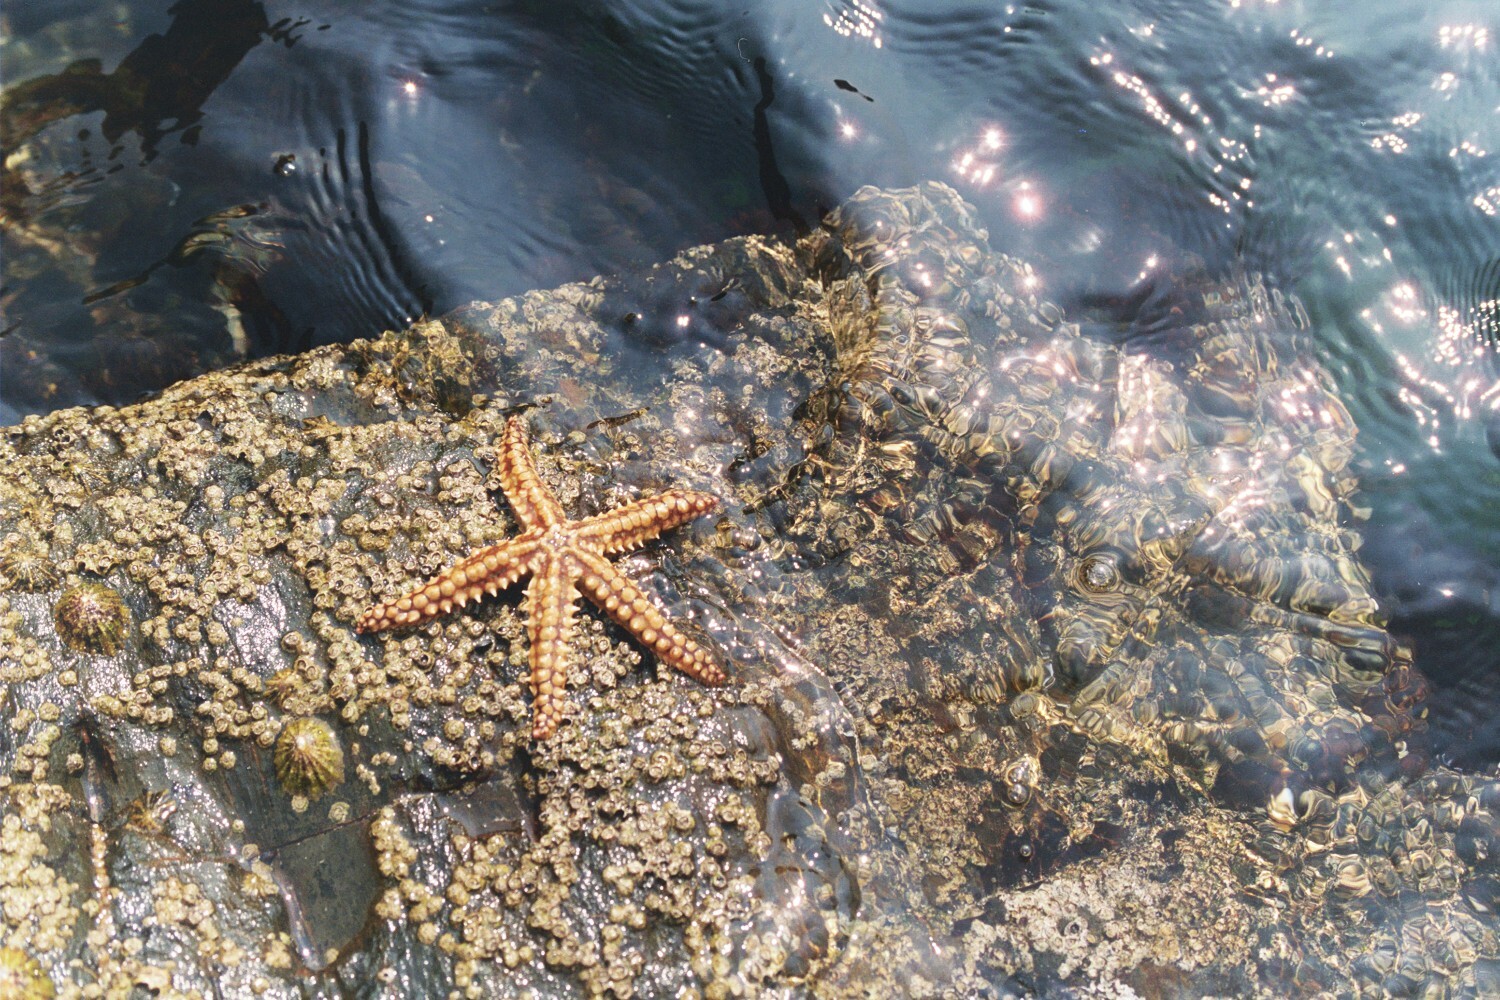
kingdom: Animalia
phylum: Echinodermata
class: Asteroidea
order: Forcipulatida
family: Asteriidae
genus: Marthasterias
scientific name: Marthasterias glacialis
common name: Spiny starfish
